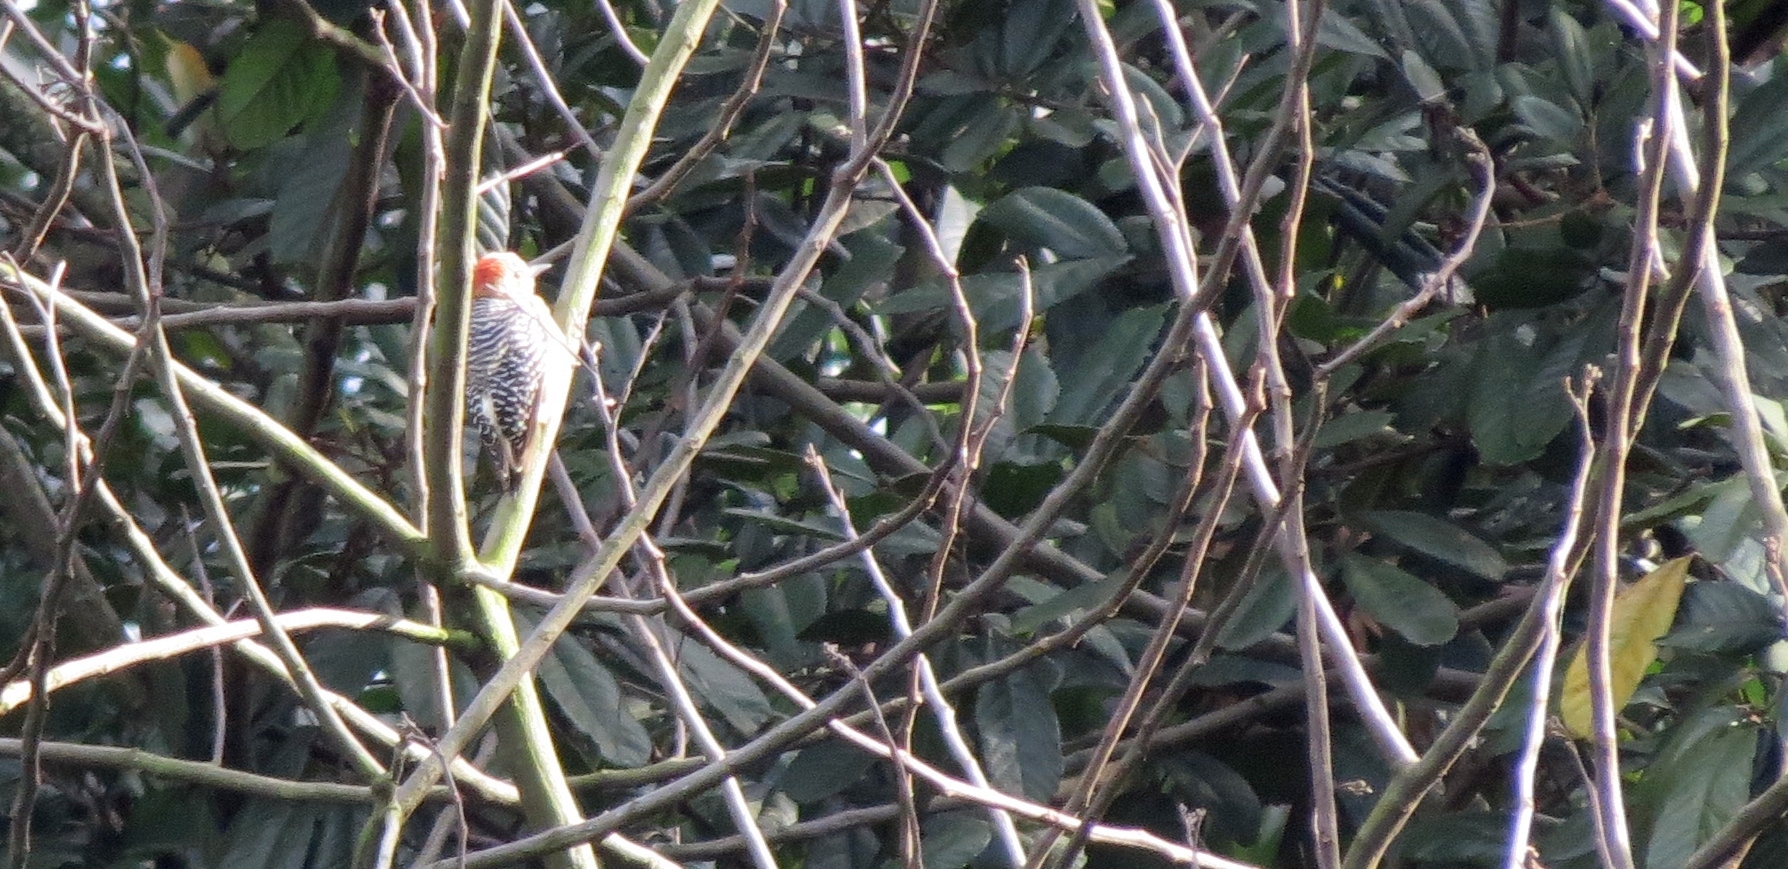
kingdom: Animalia
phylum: Chordata
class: Aves
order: Piciformes
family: Picidae
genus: Melanerpes
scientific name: Melanerpes rubricapillus
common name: Red-crowned woodpecker
